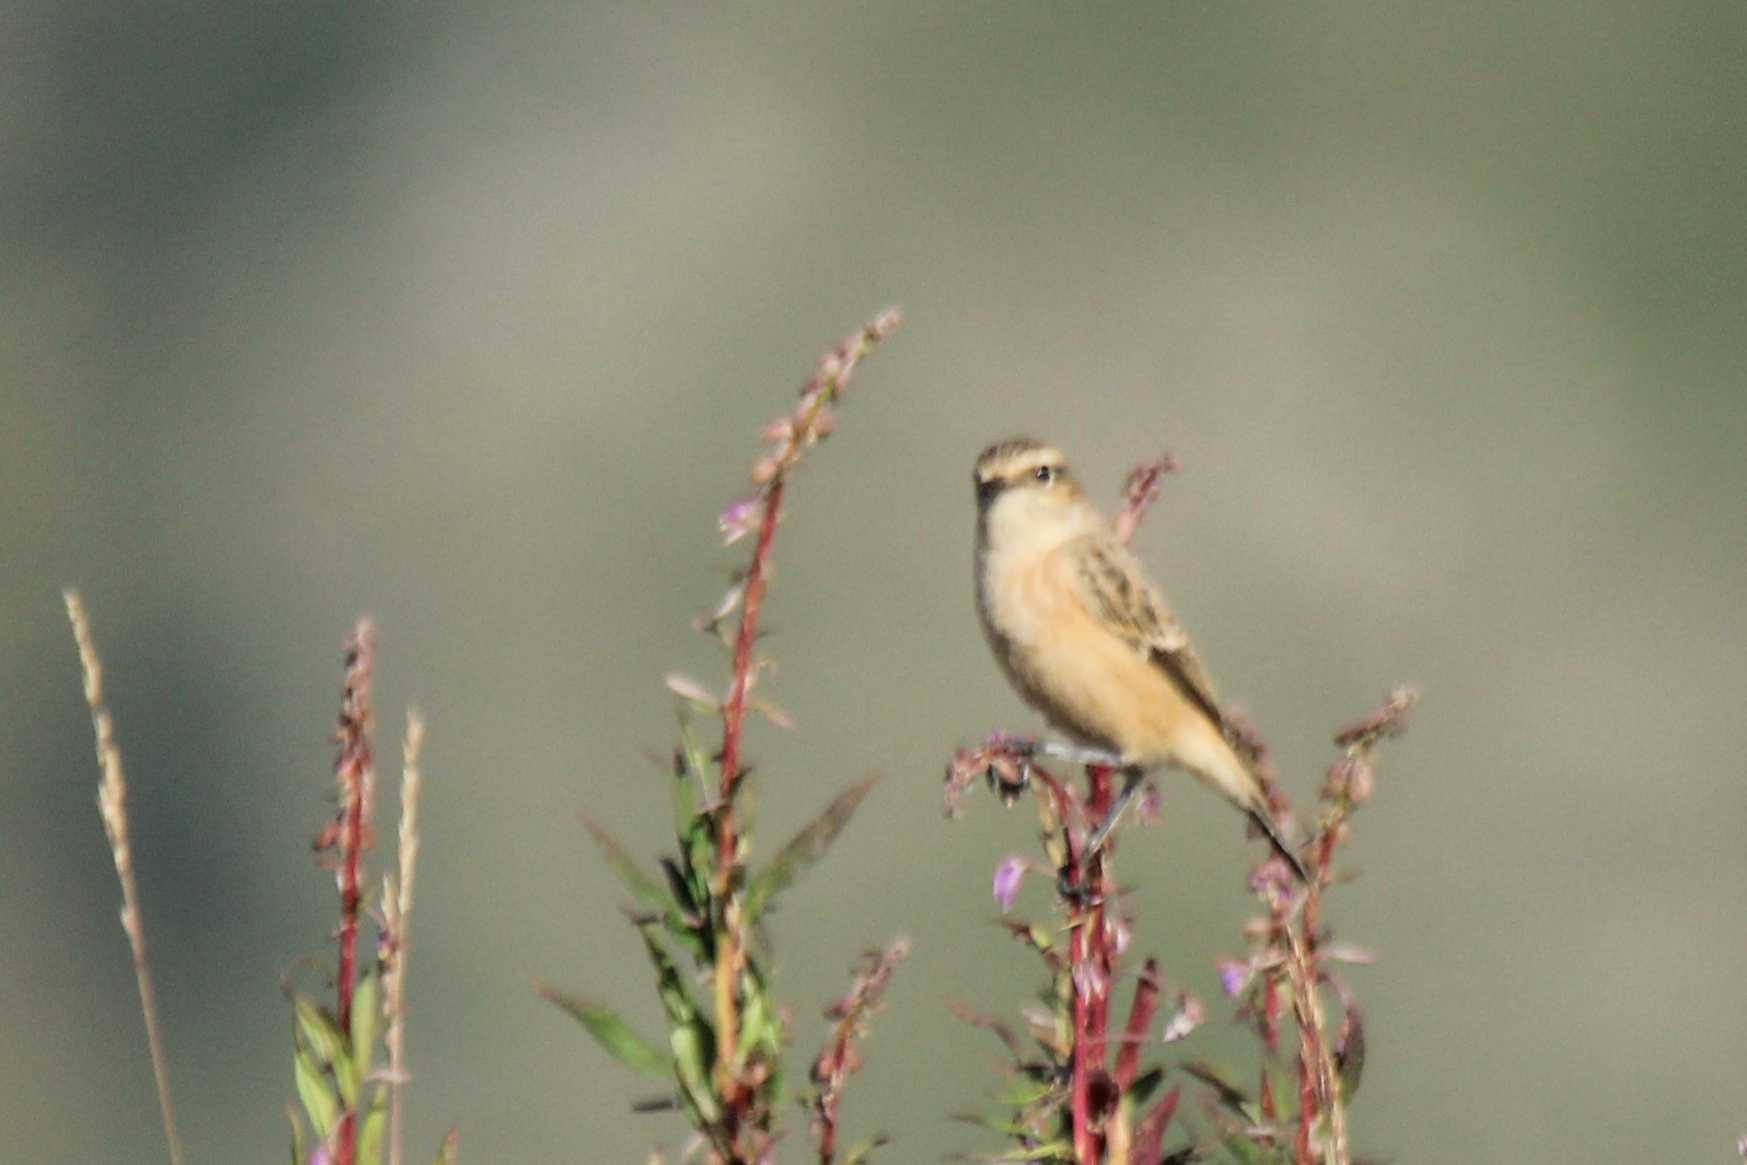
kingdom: Animalia
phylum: Chordata
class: Aves
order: Passeriformes
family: Muscicapidae
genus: Saxicola
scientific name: Saxicola maurus
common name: Siberian stonechat
